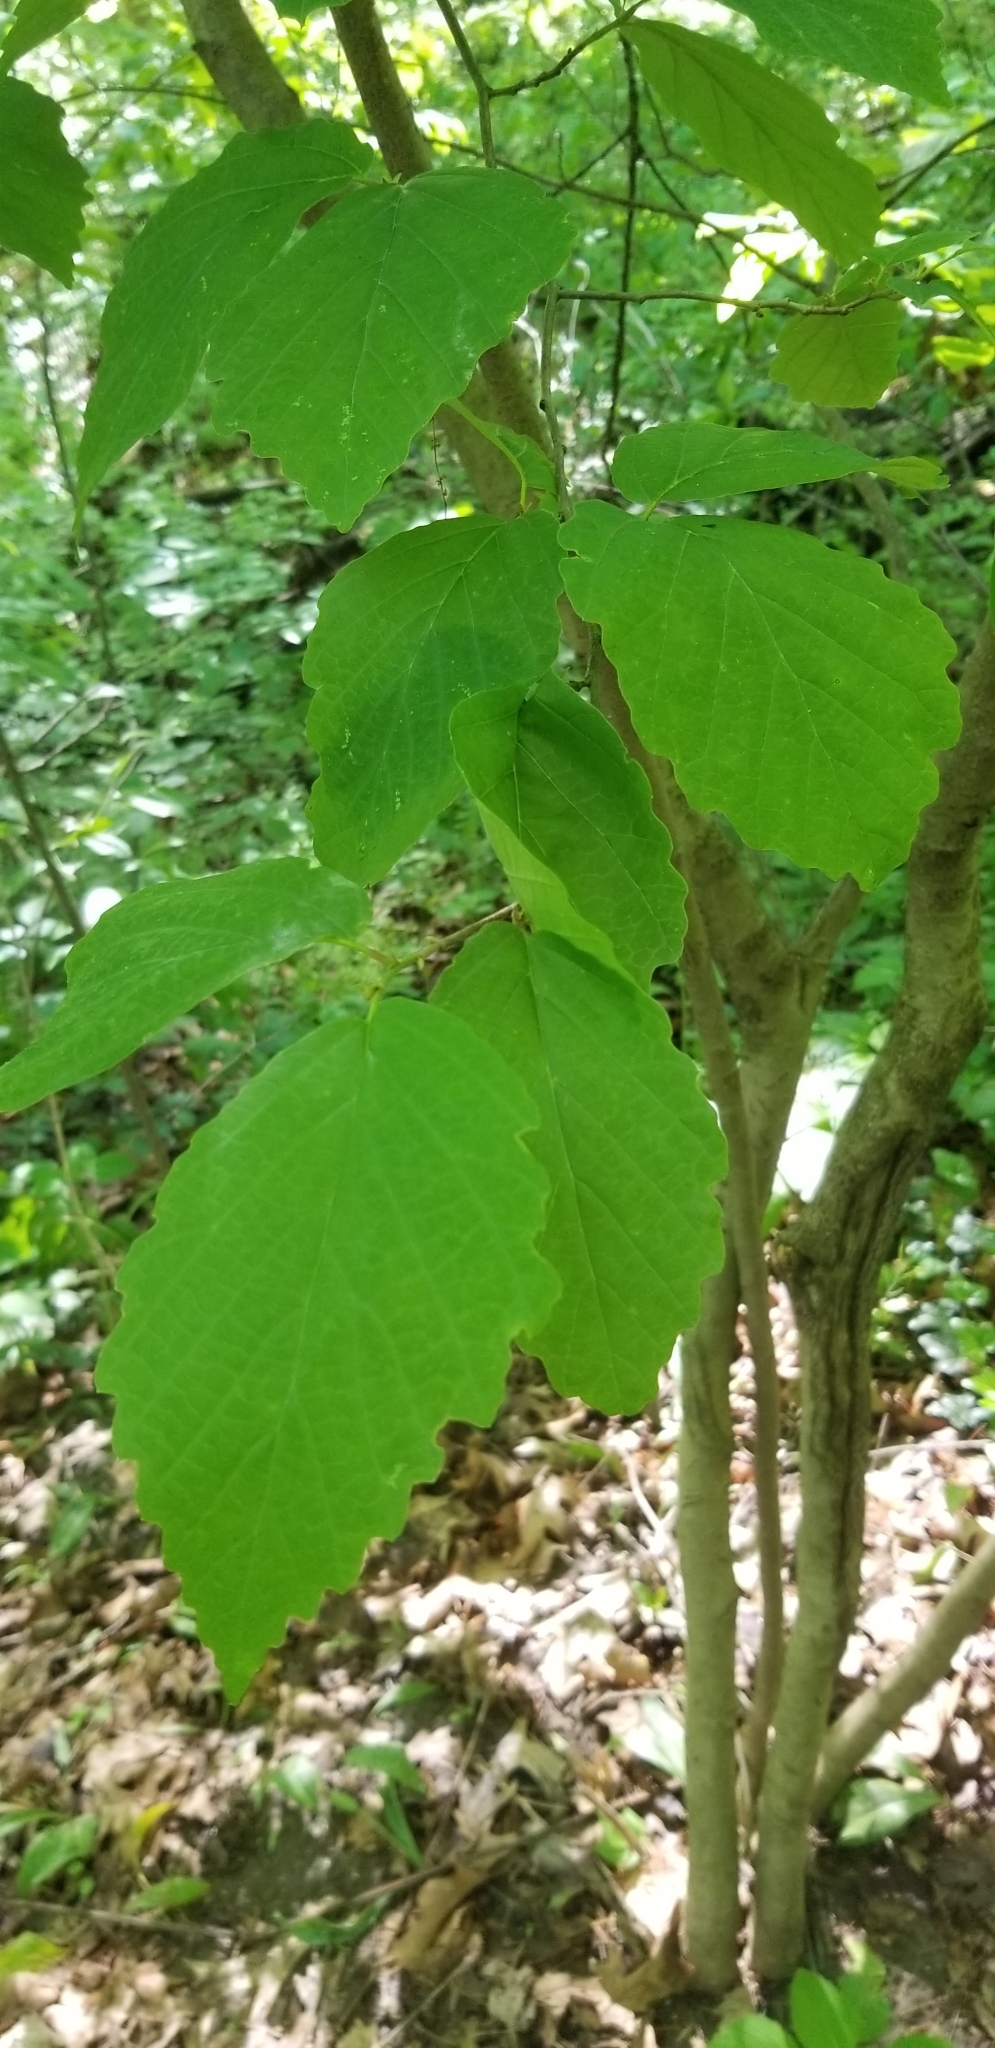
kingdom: Plantae
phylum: Tracheophyta
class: Magnoliopsida
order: Saxifragales
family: Hamamelidaceae
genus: Hamamelis
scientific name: Hamamelis virginiana
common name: Witch-hazel
